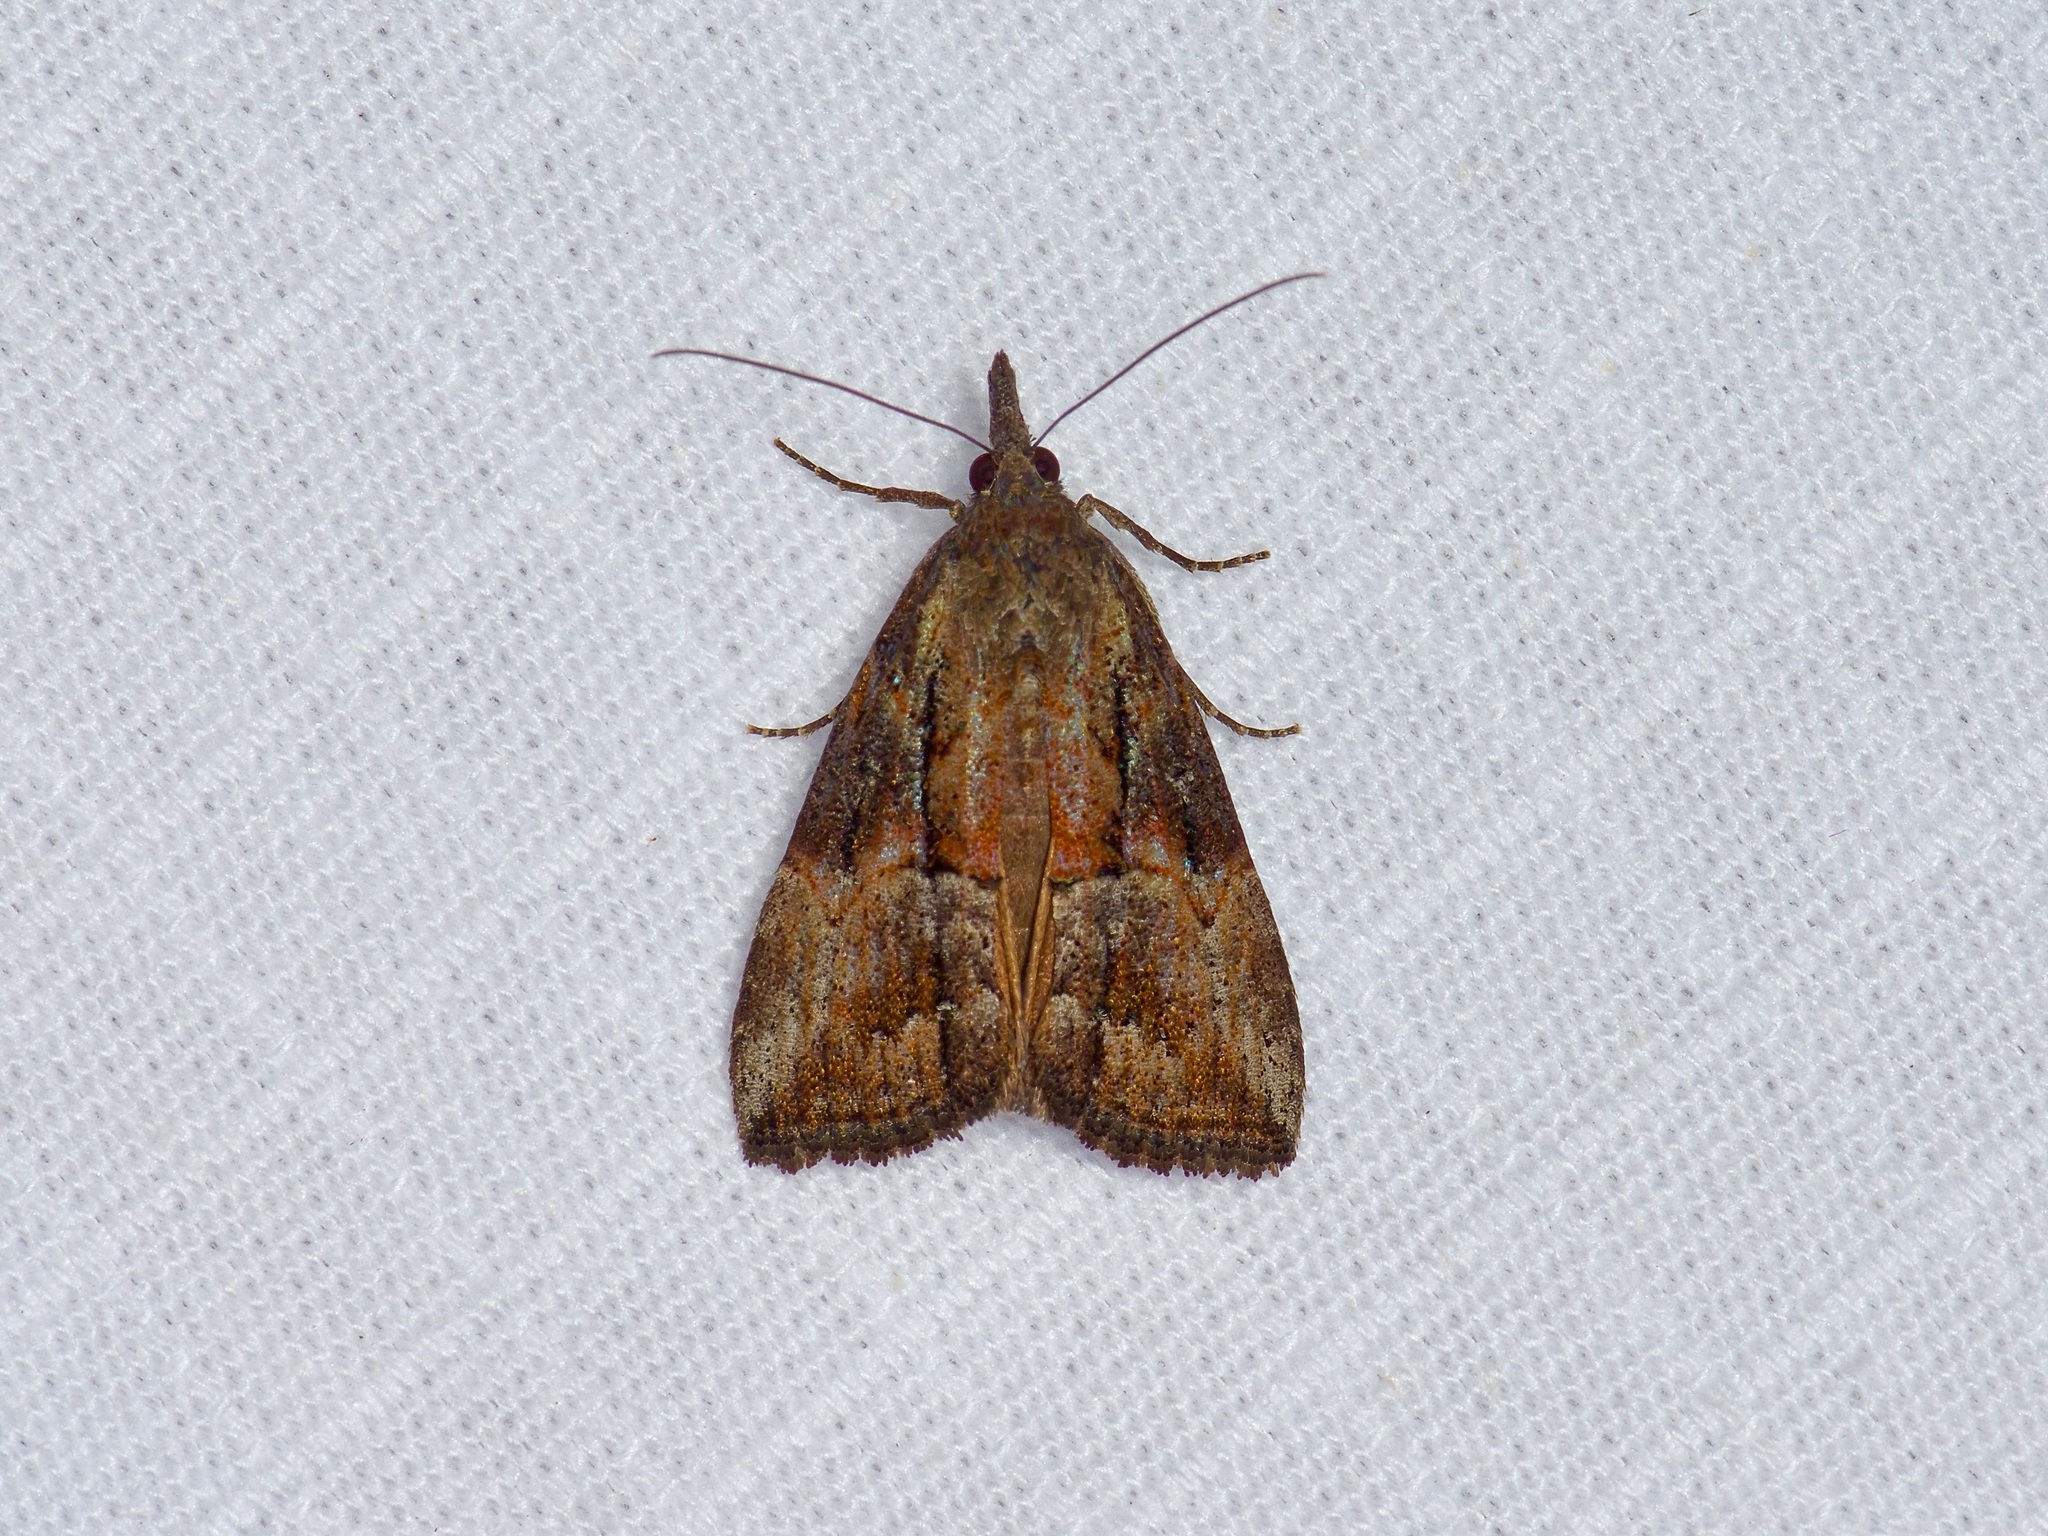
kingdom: Animalia
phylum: Arthropoda
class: Insecta
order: Lepidoptera
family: Erebidae
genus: Hypena
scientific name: Hypena scabra
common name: Green cloverworm
